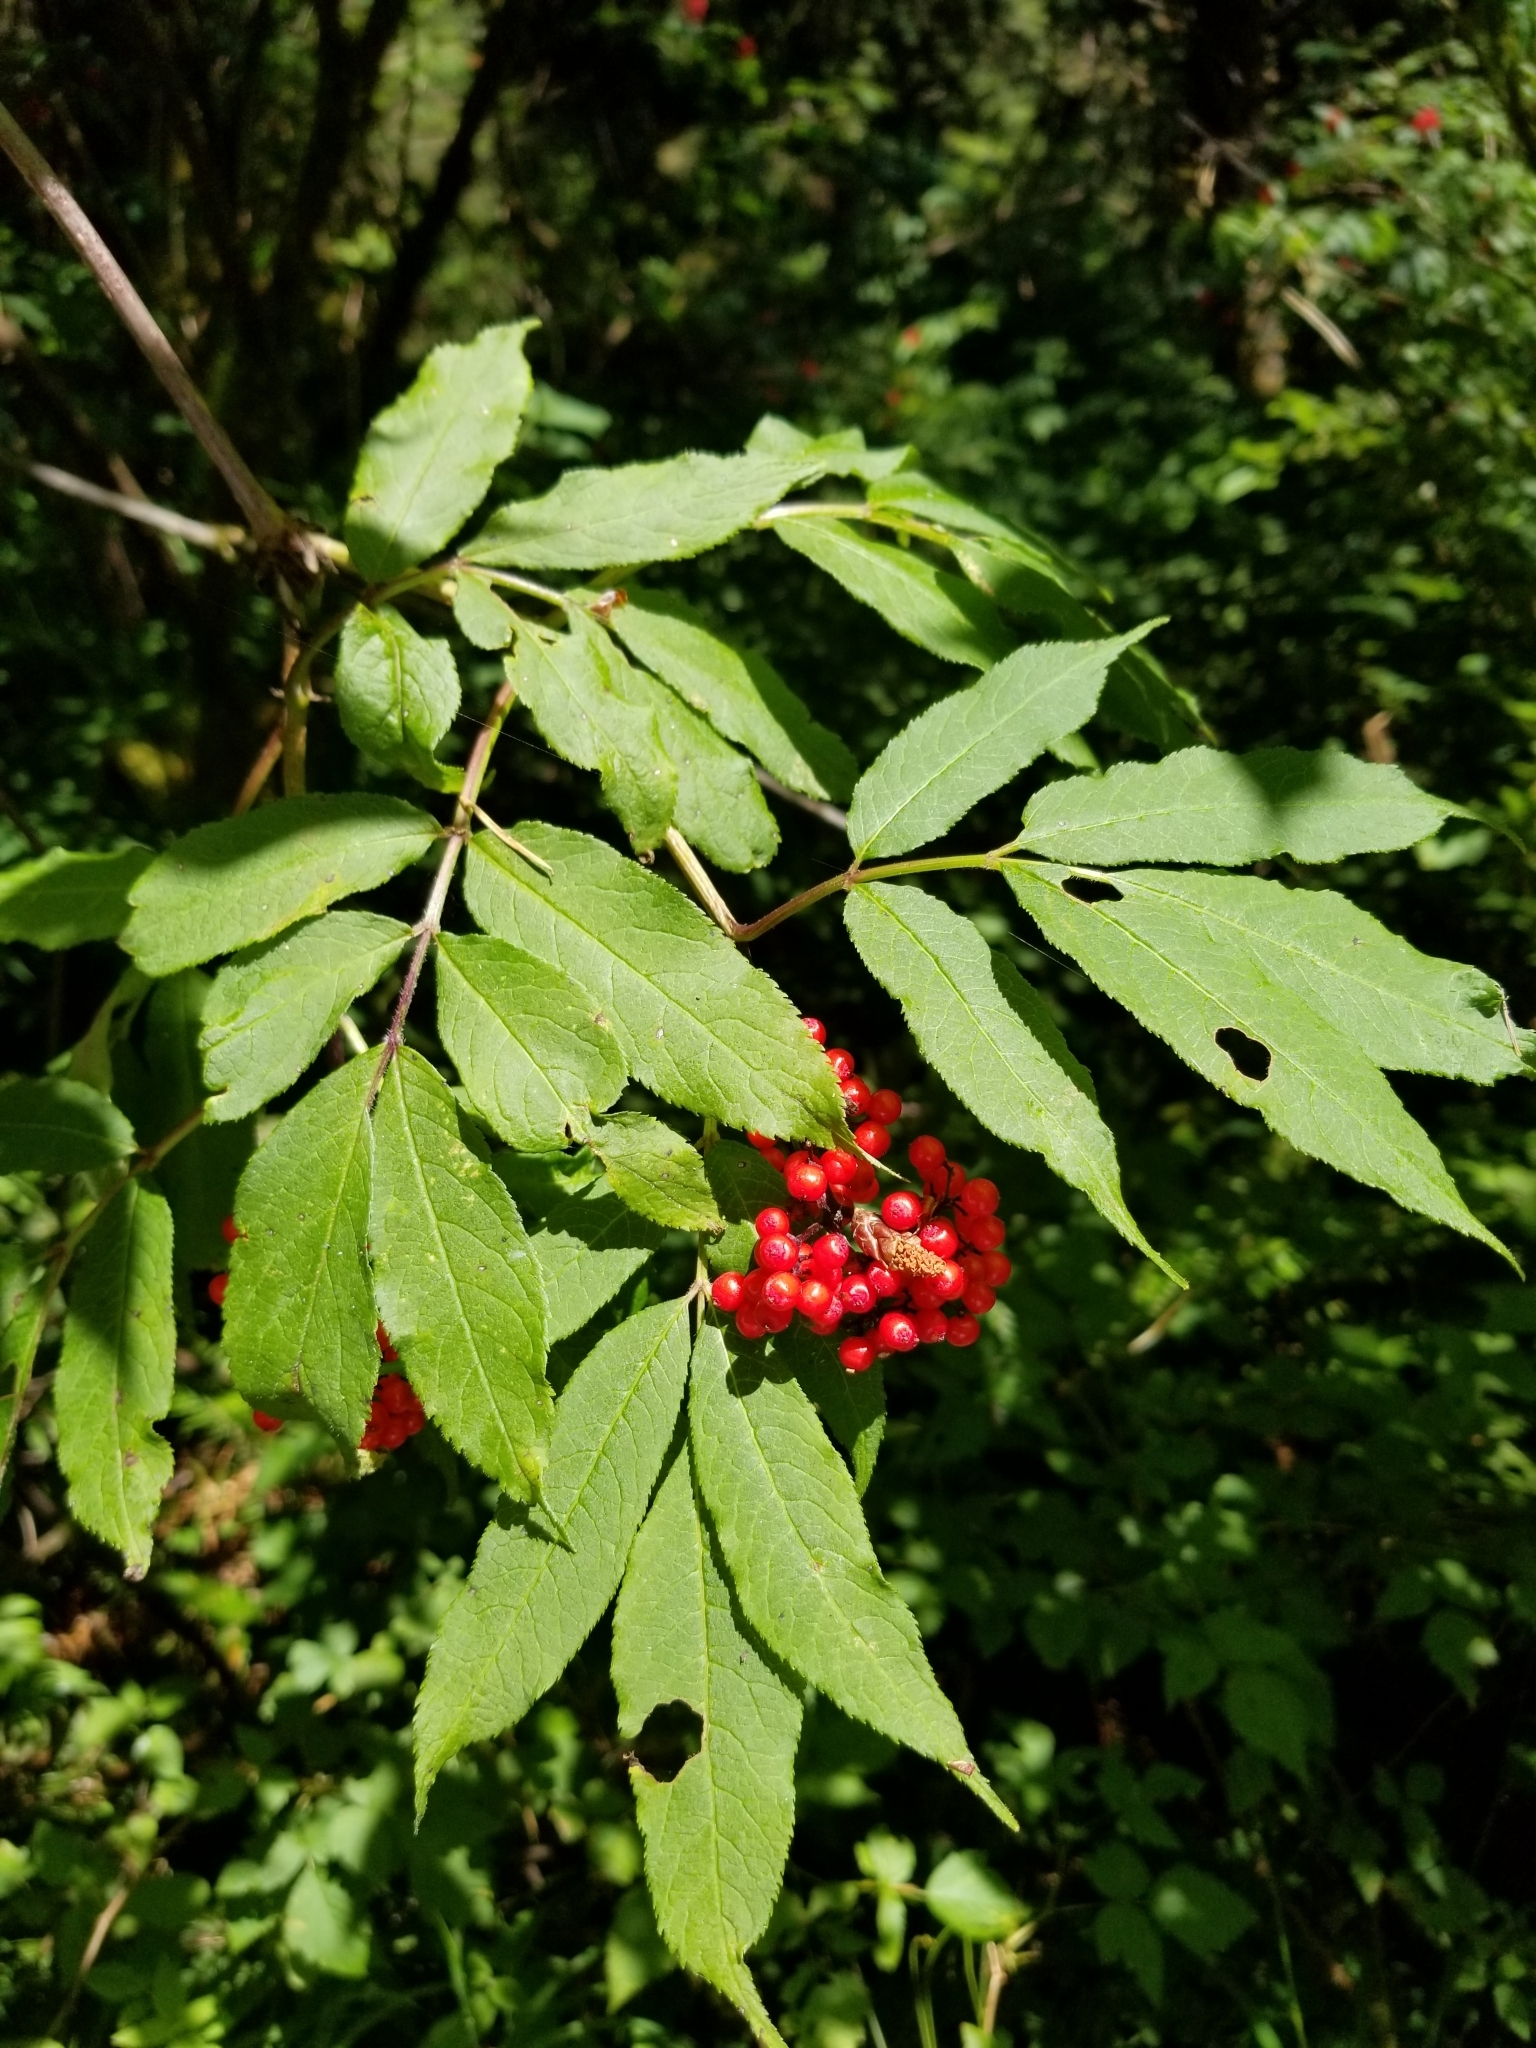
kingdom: Plantae
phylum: Tracheophyta
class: Magnoliopsida
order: Dipsacales
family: Viburnaceae
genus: Sambucus
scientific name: Sambucus racemosa
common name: Red-berried elder
